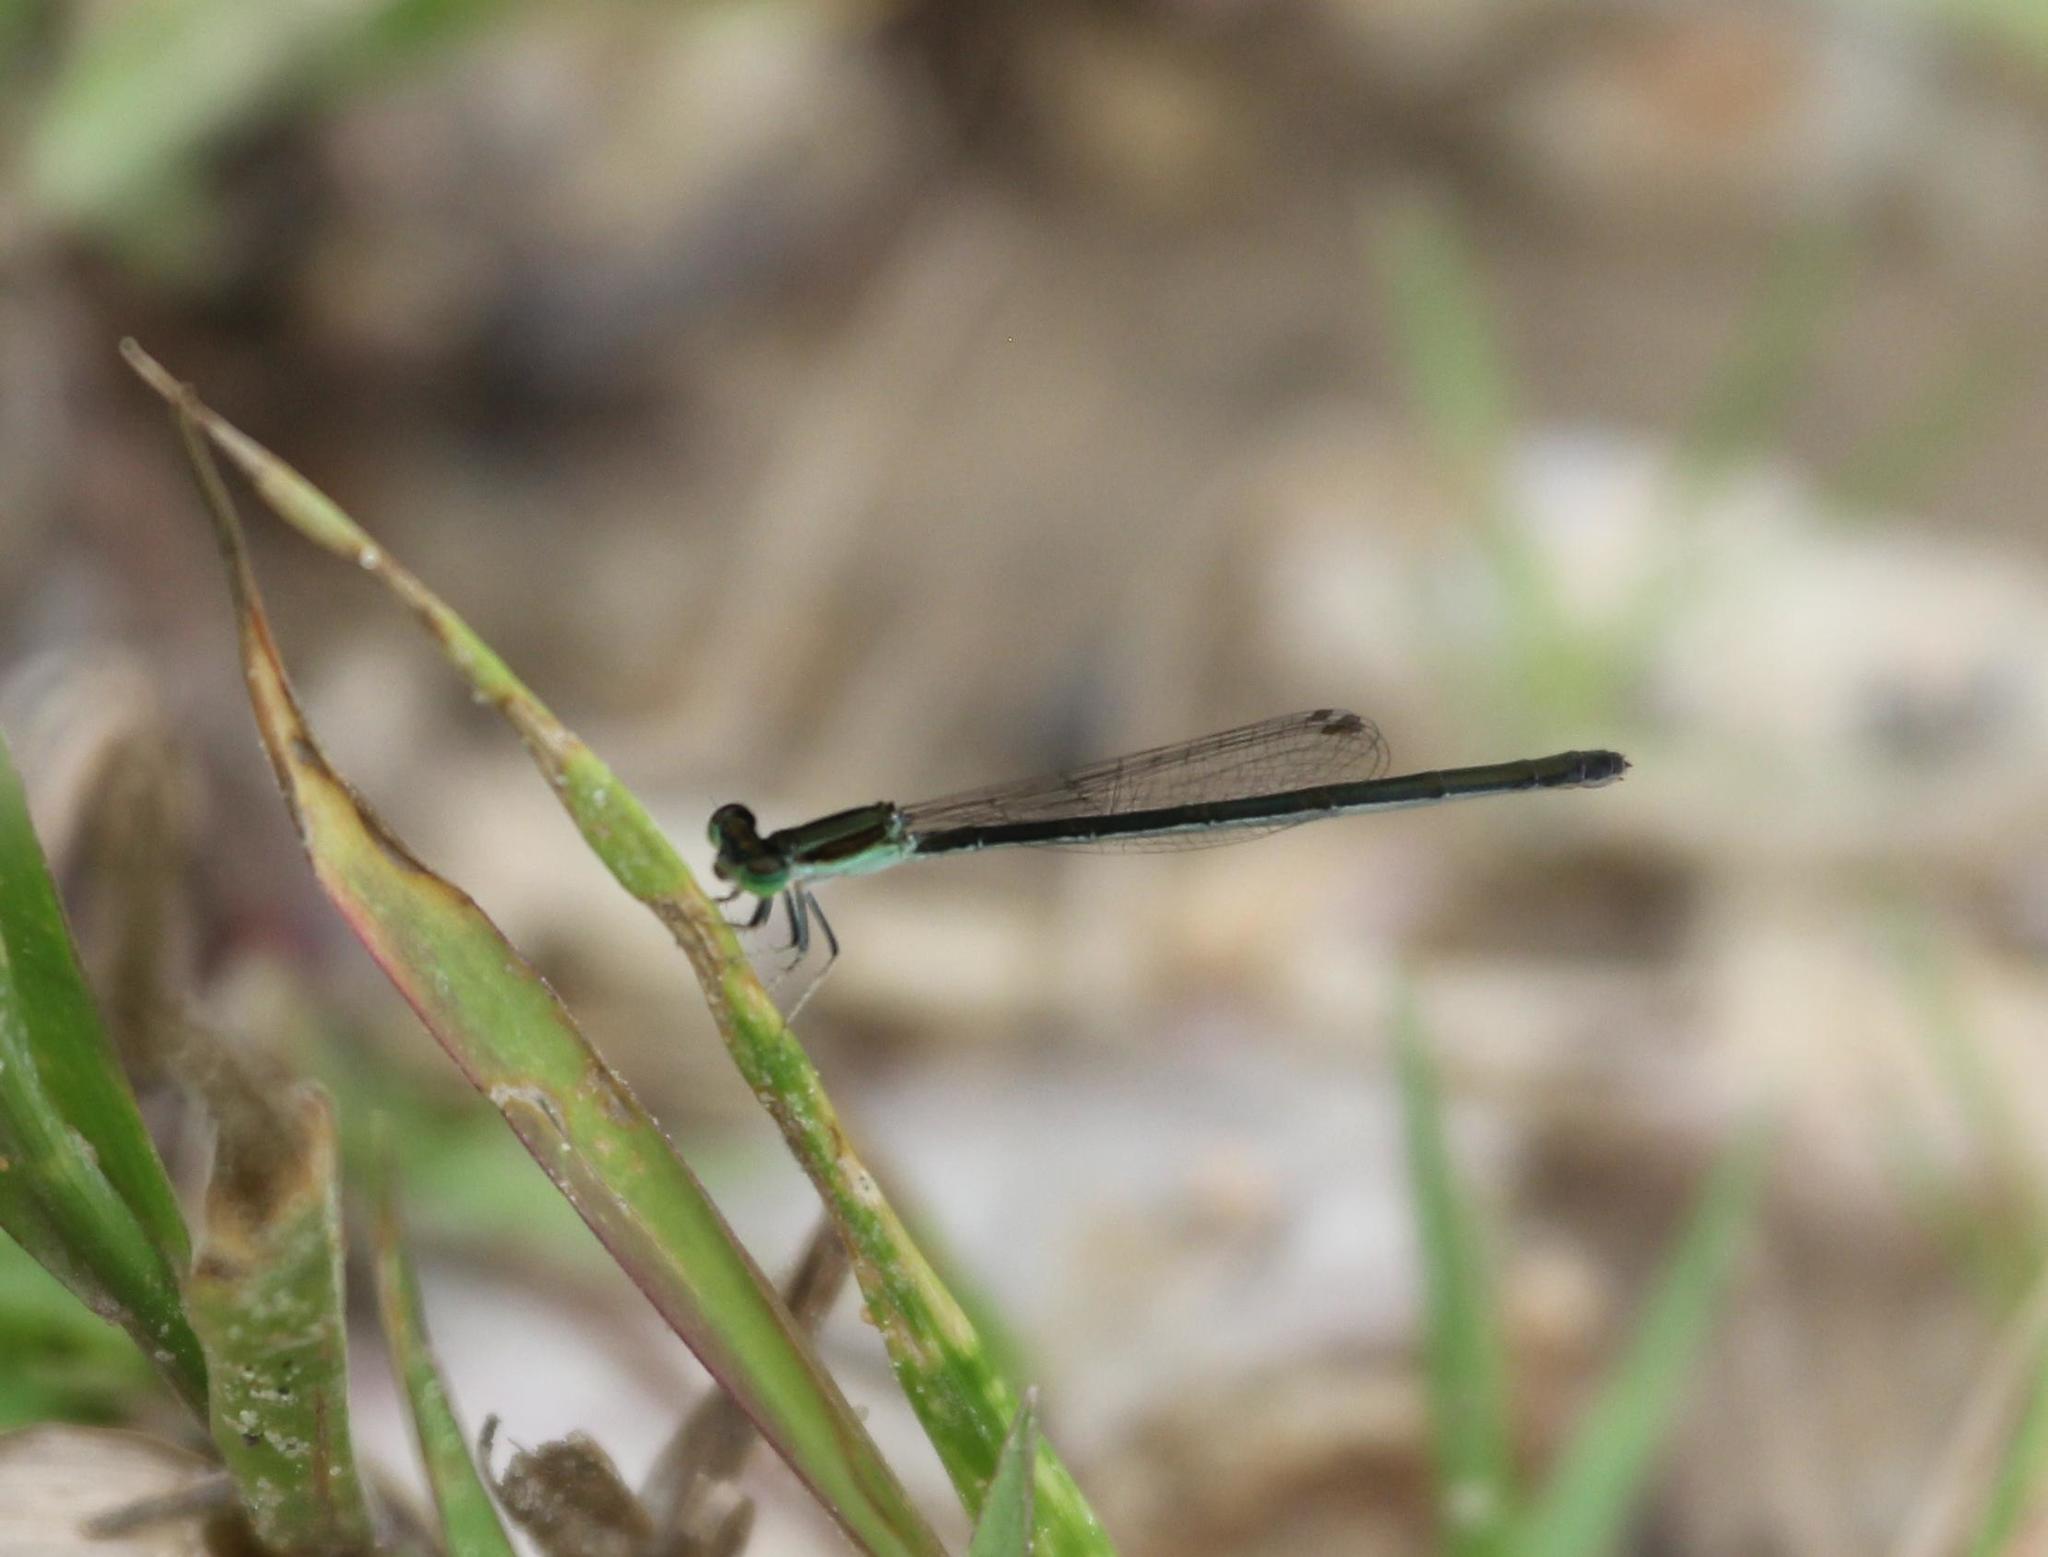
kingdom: Animalia
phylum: Arthropoda
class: Insecta
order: Odonata
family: Coenagrionidae
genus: Ischnura
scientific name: Ischnura prognata
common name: Furtive forktail
